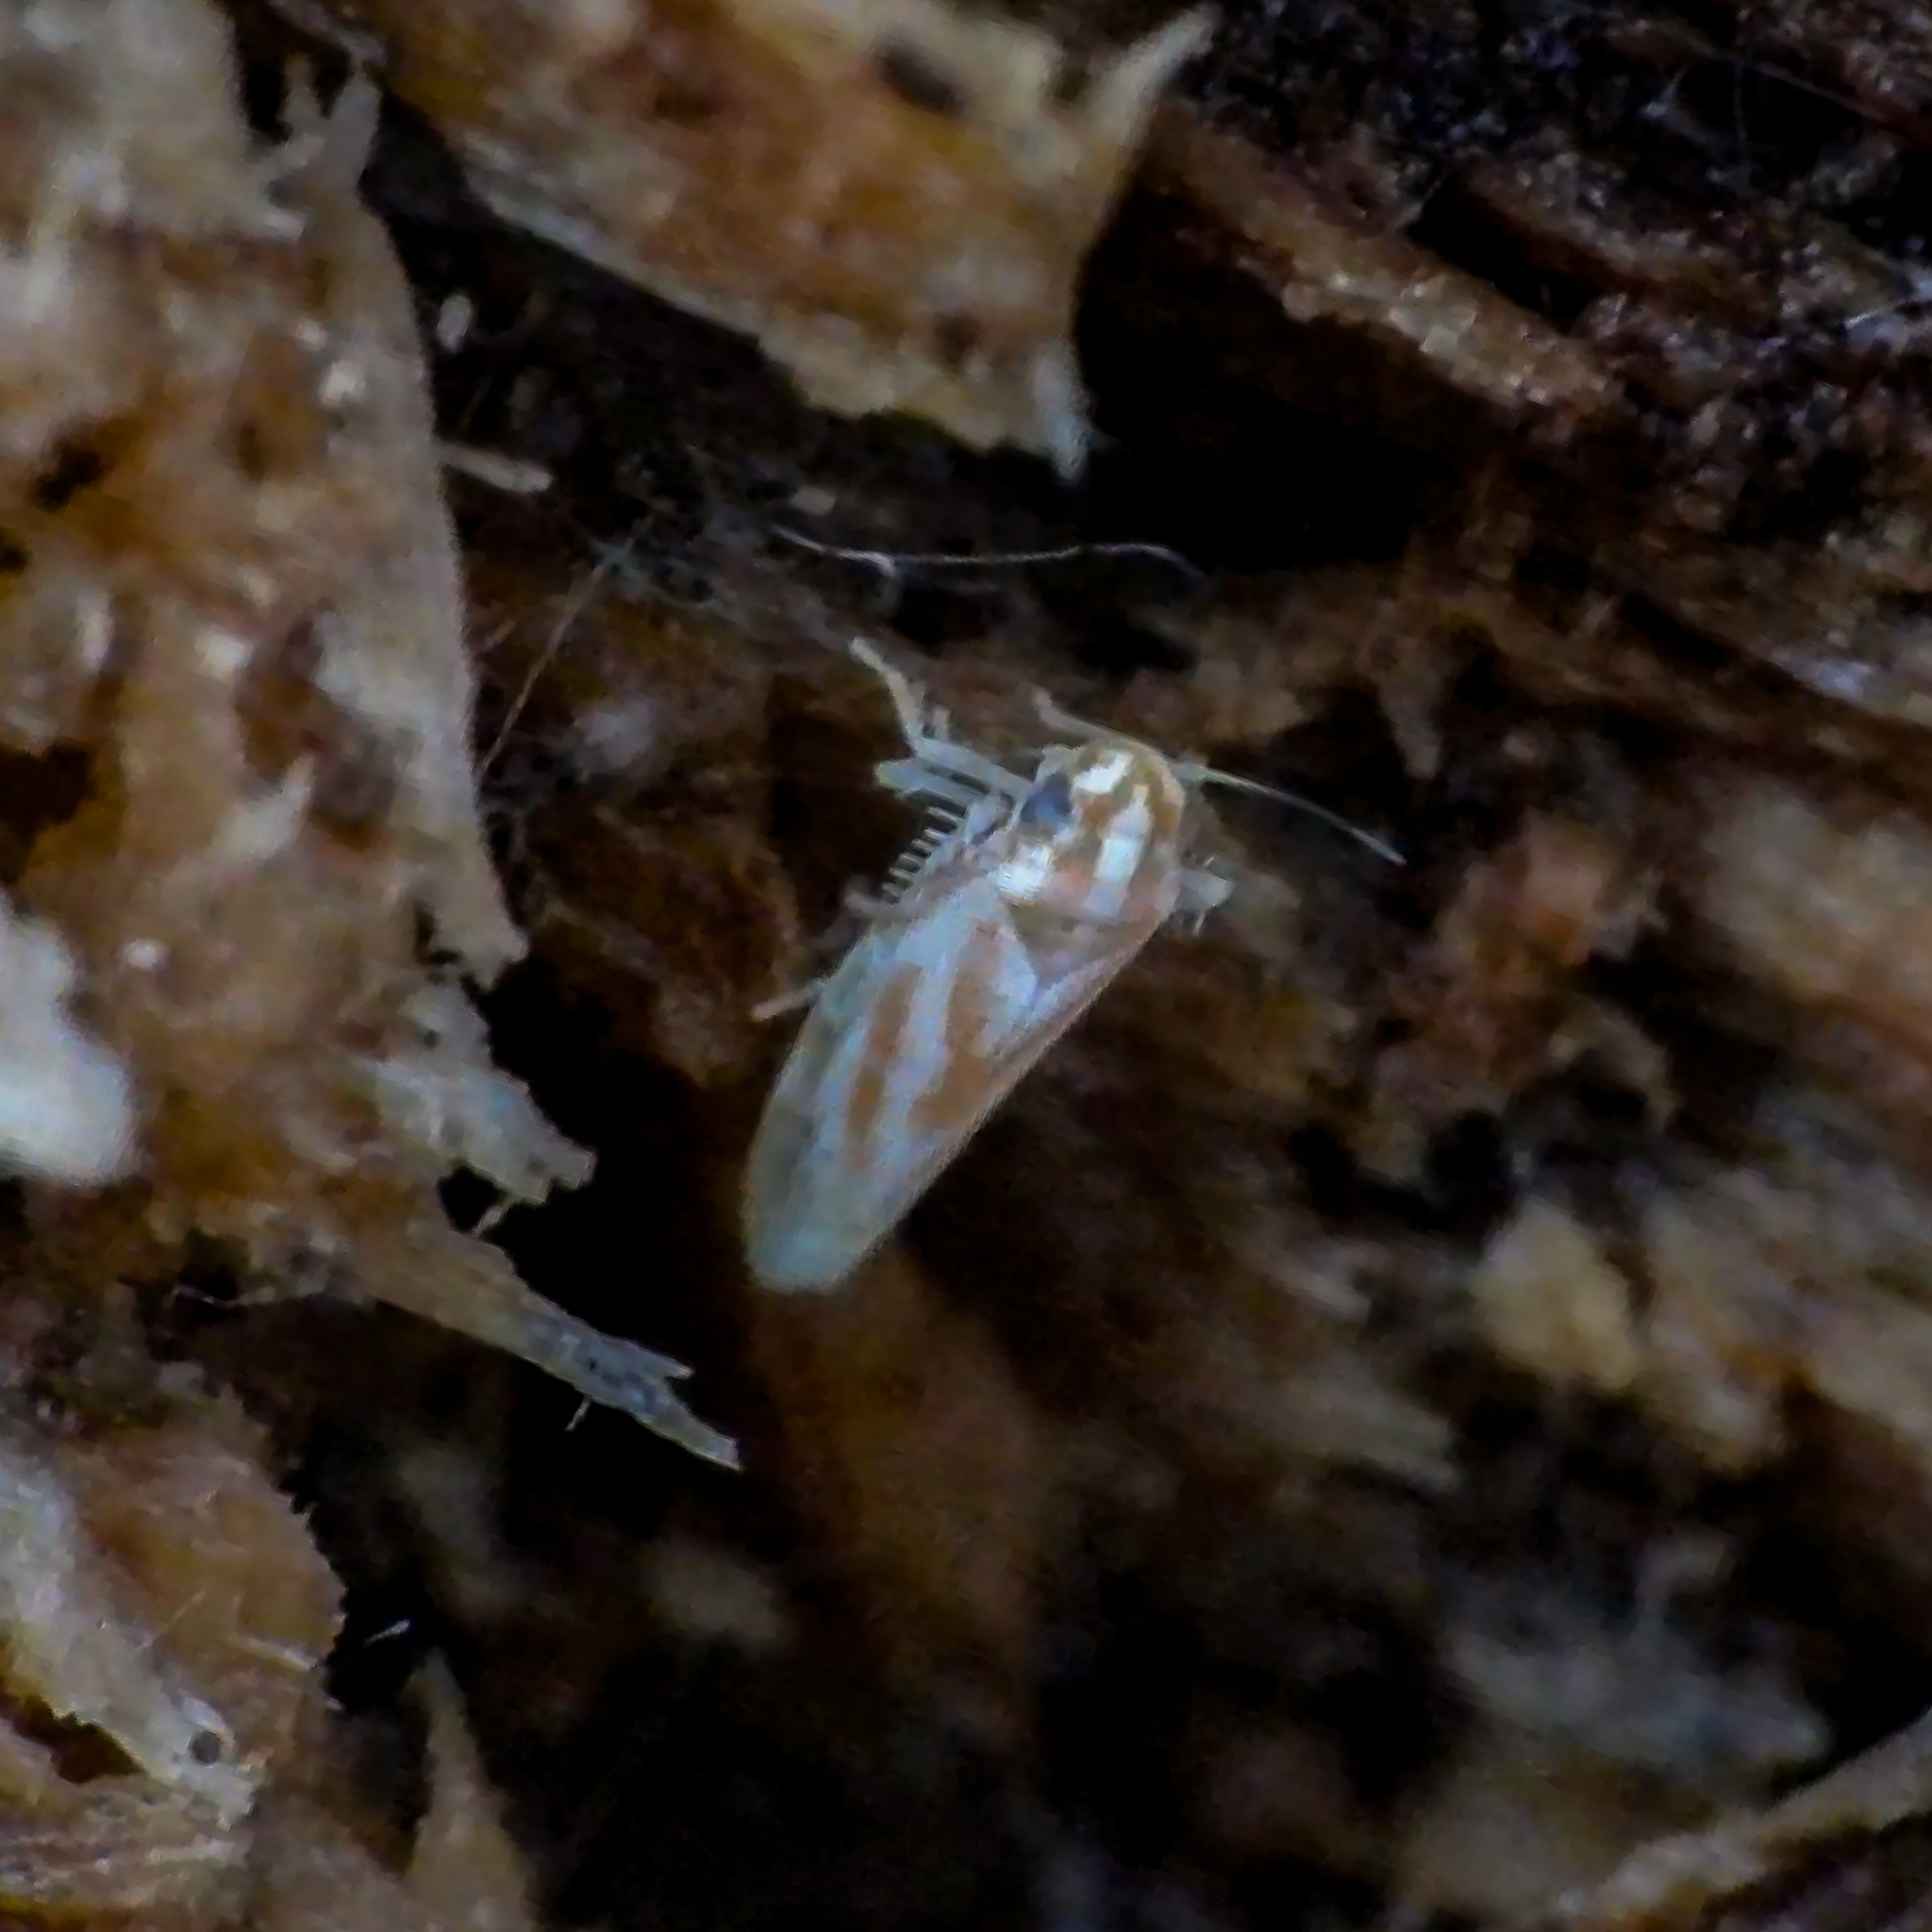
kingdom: Animalia
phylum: Arthropoda
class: Insecta
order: Hemiptera
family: Cicadellidae
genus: Erythridula
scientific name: Erythridula noeva
